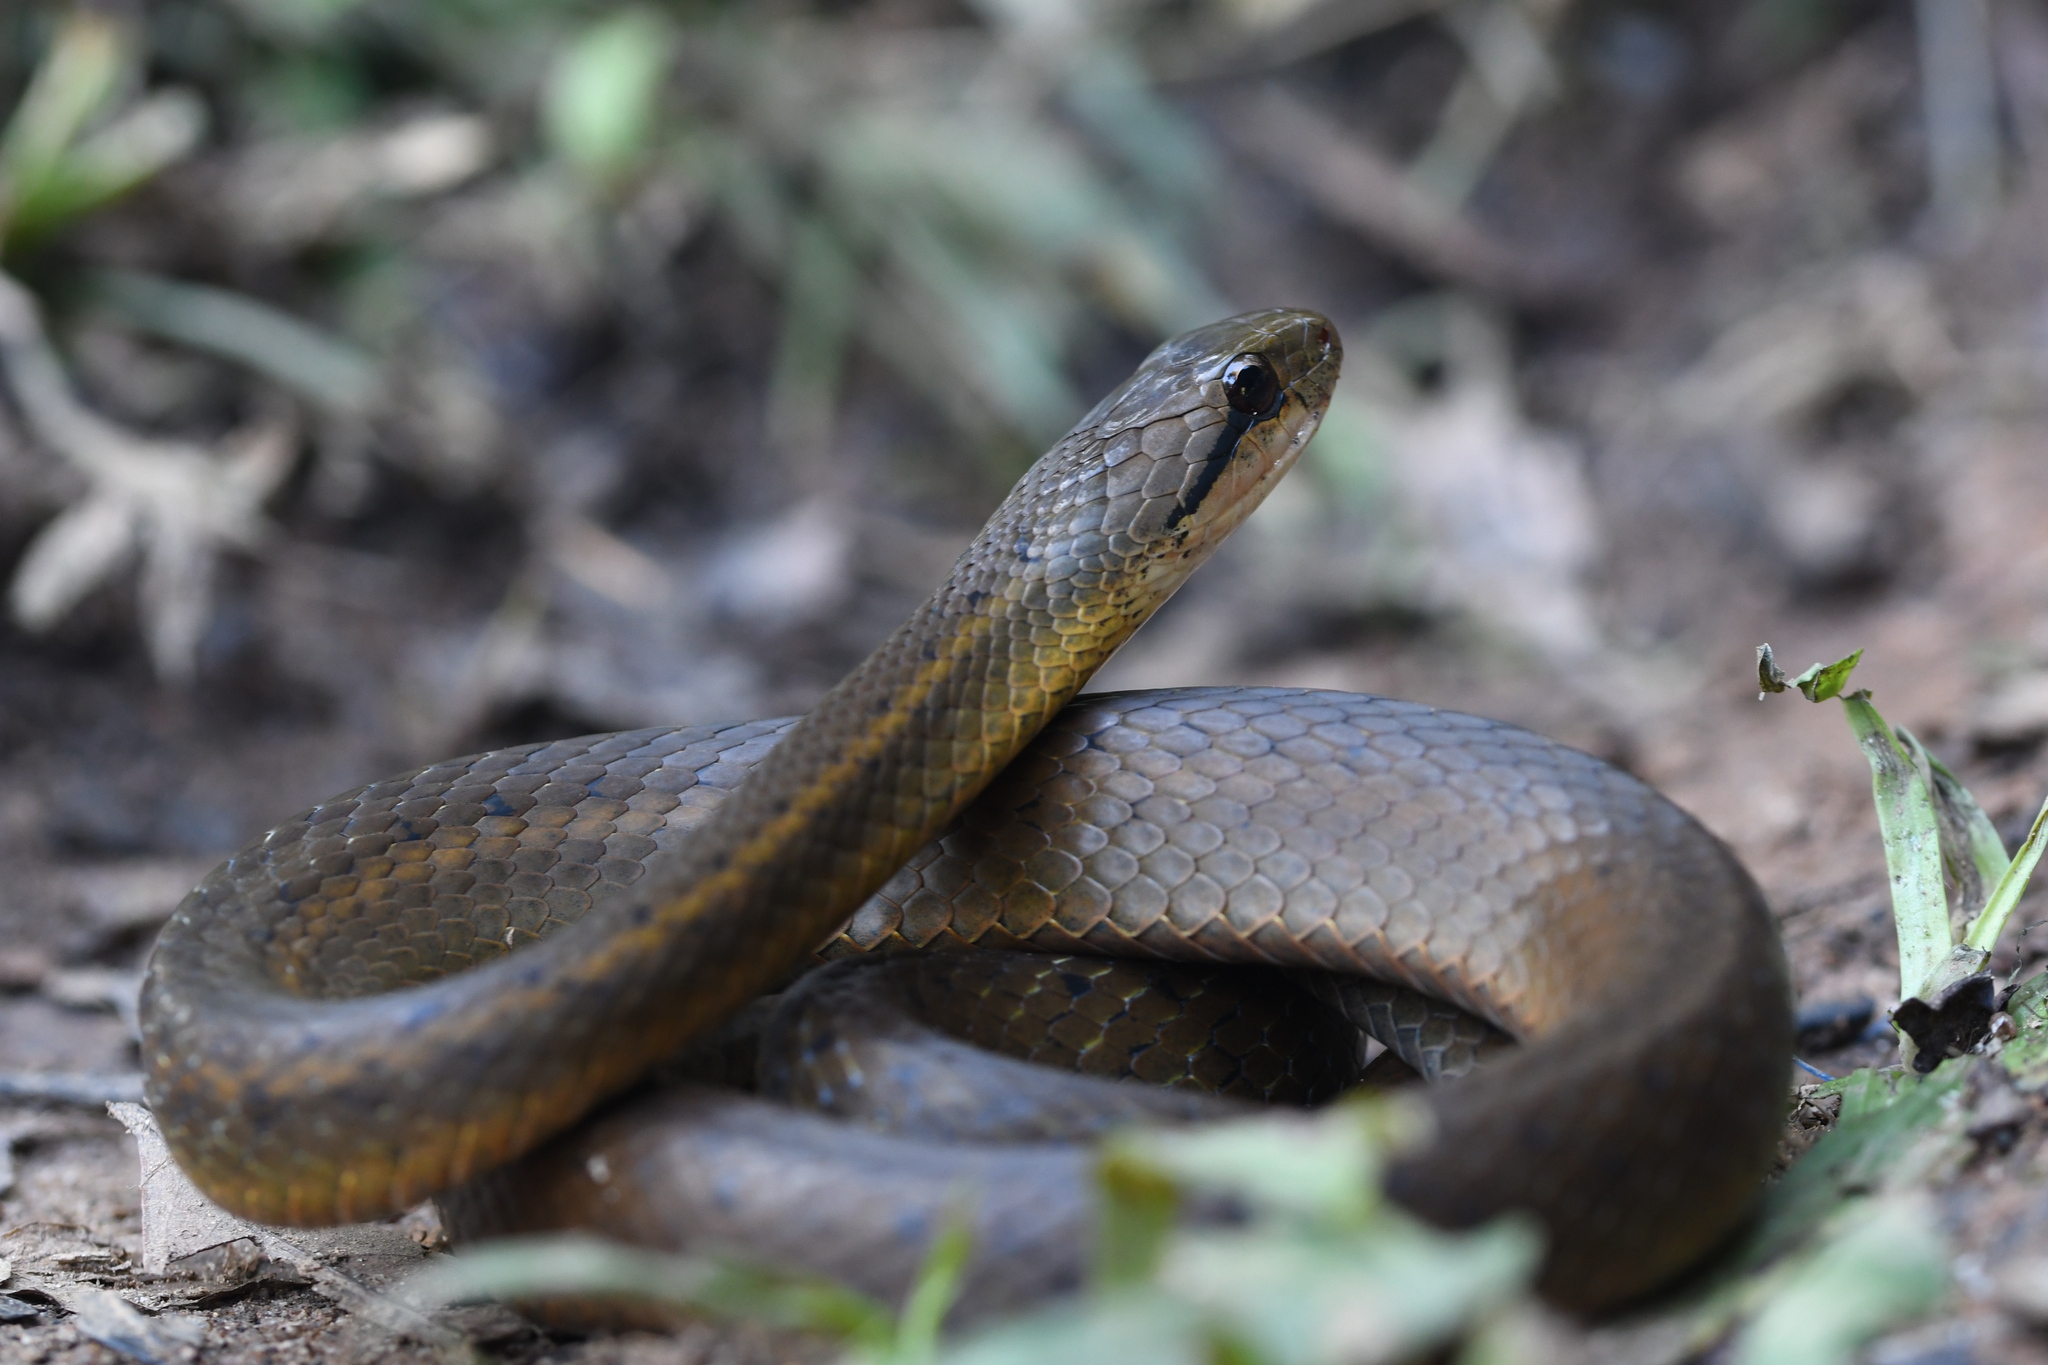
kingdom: Animalia
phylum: Chordata
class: Squamata
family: Pseudoxyrhophiidae
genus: Thamnosophis
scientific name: Thamnosophis infrasignatus
